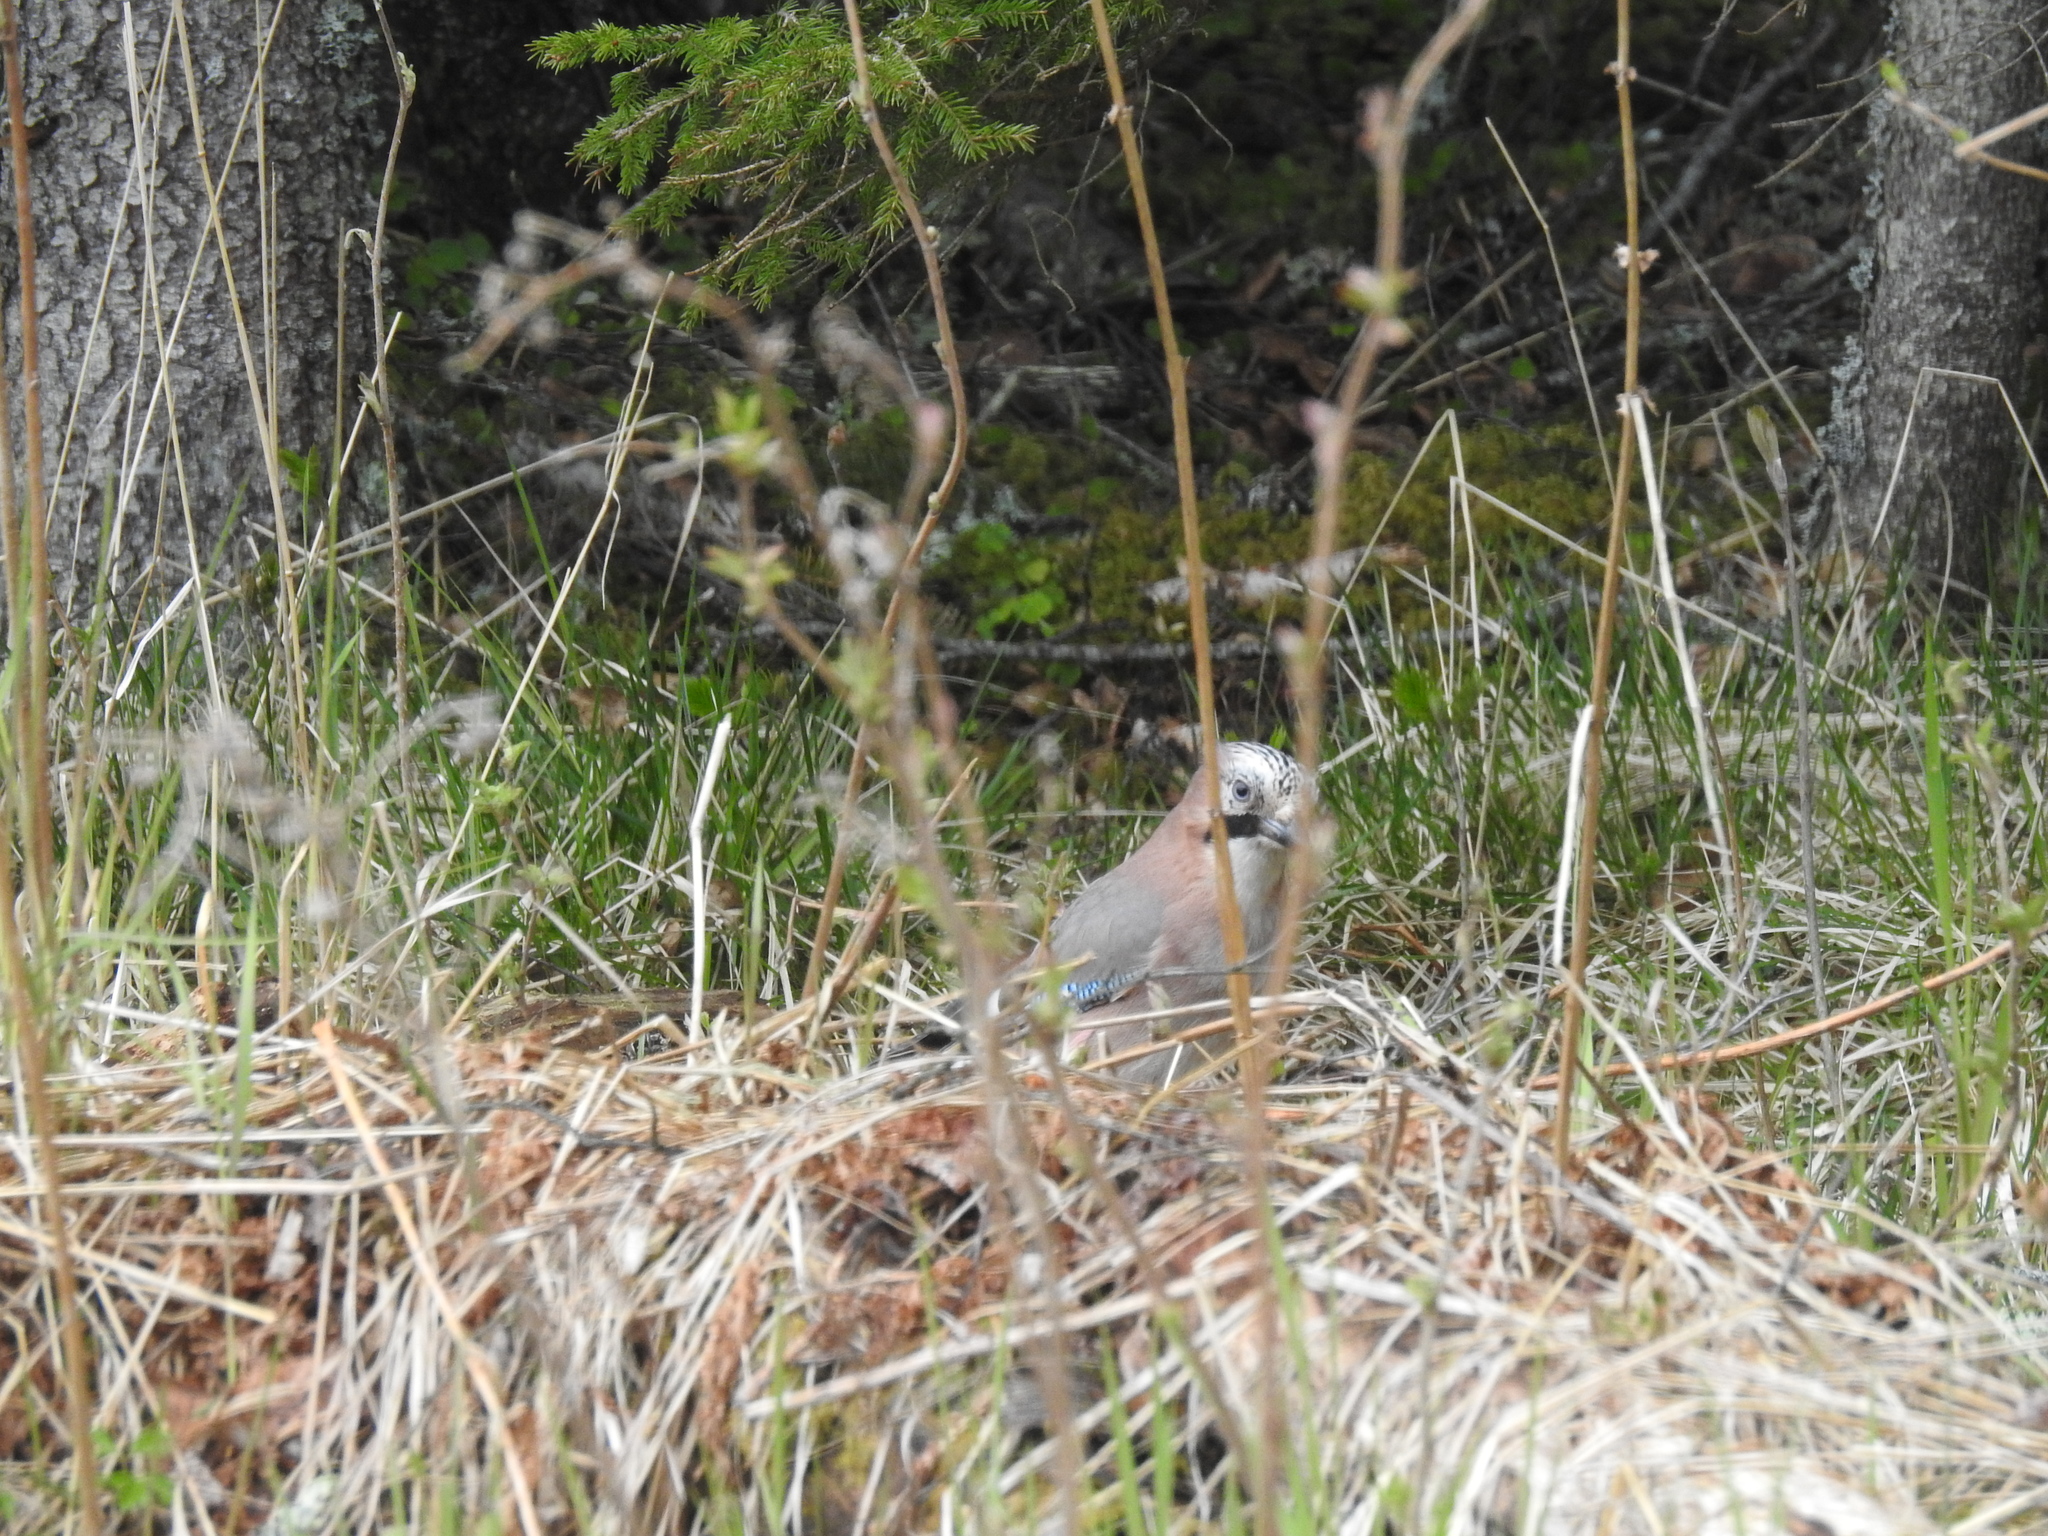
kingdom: Animalia
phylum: Chordata
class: Aves
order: Passeriformes
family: Corvidae
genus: Garrulus
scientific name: Garrulus glandarius
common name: Eurasian jay
